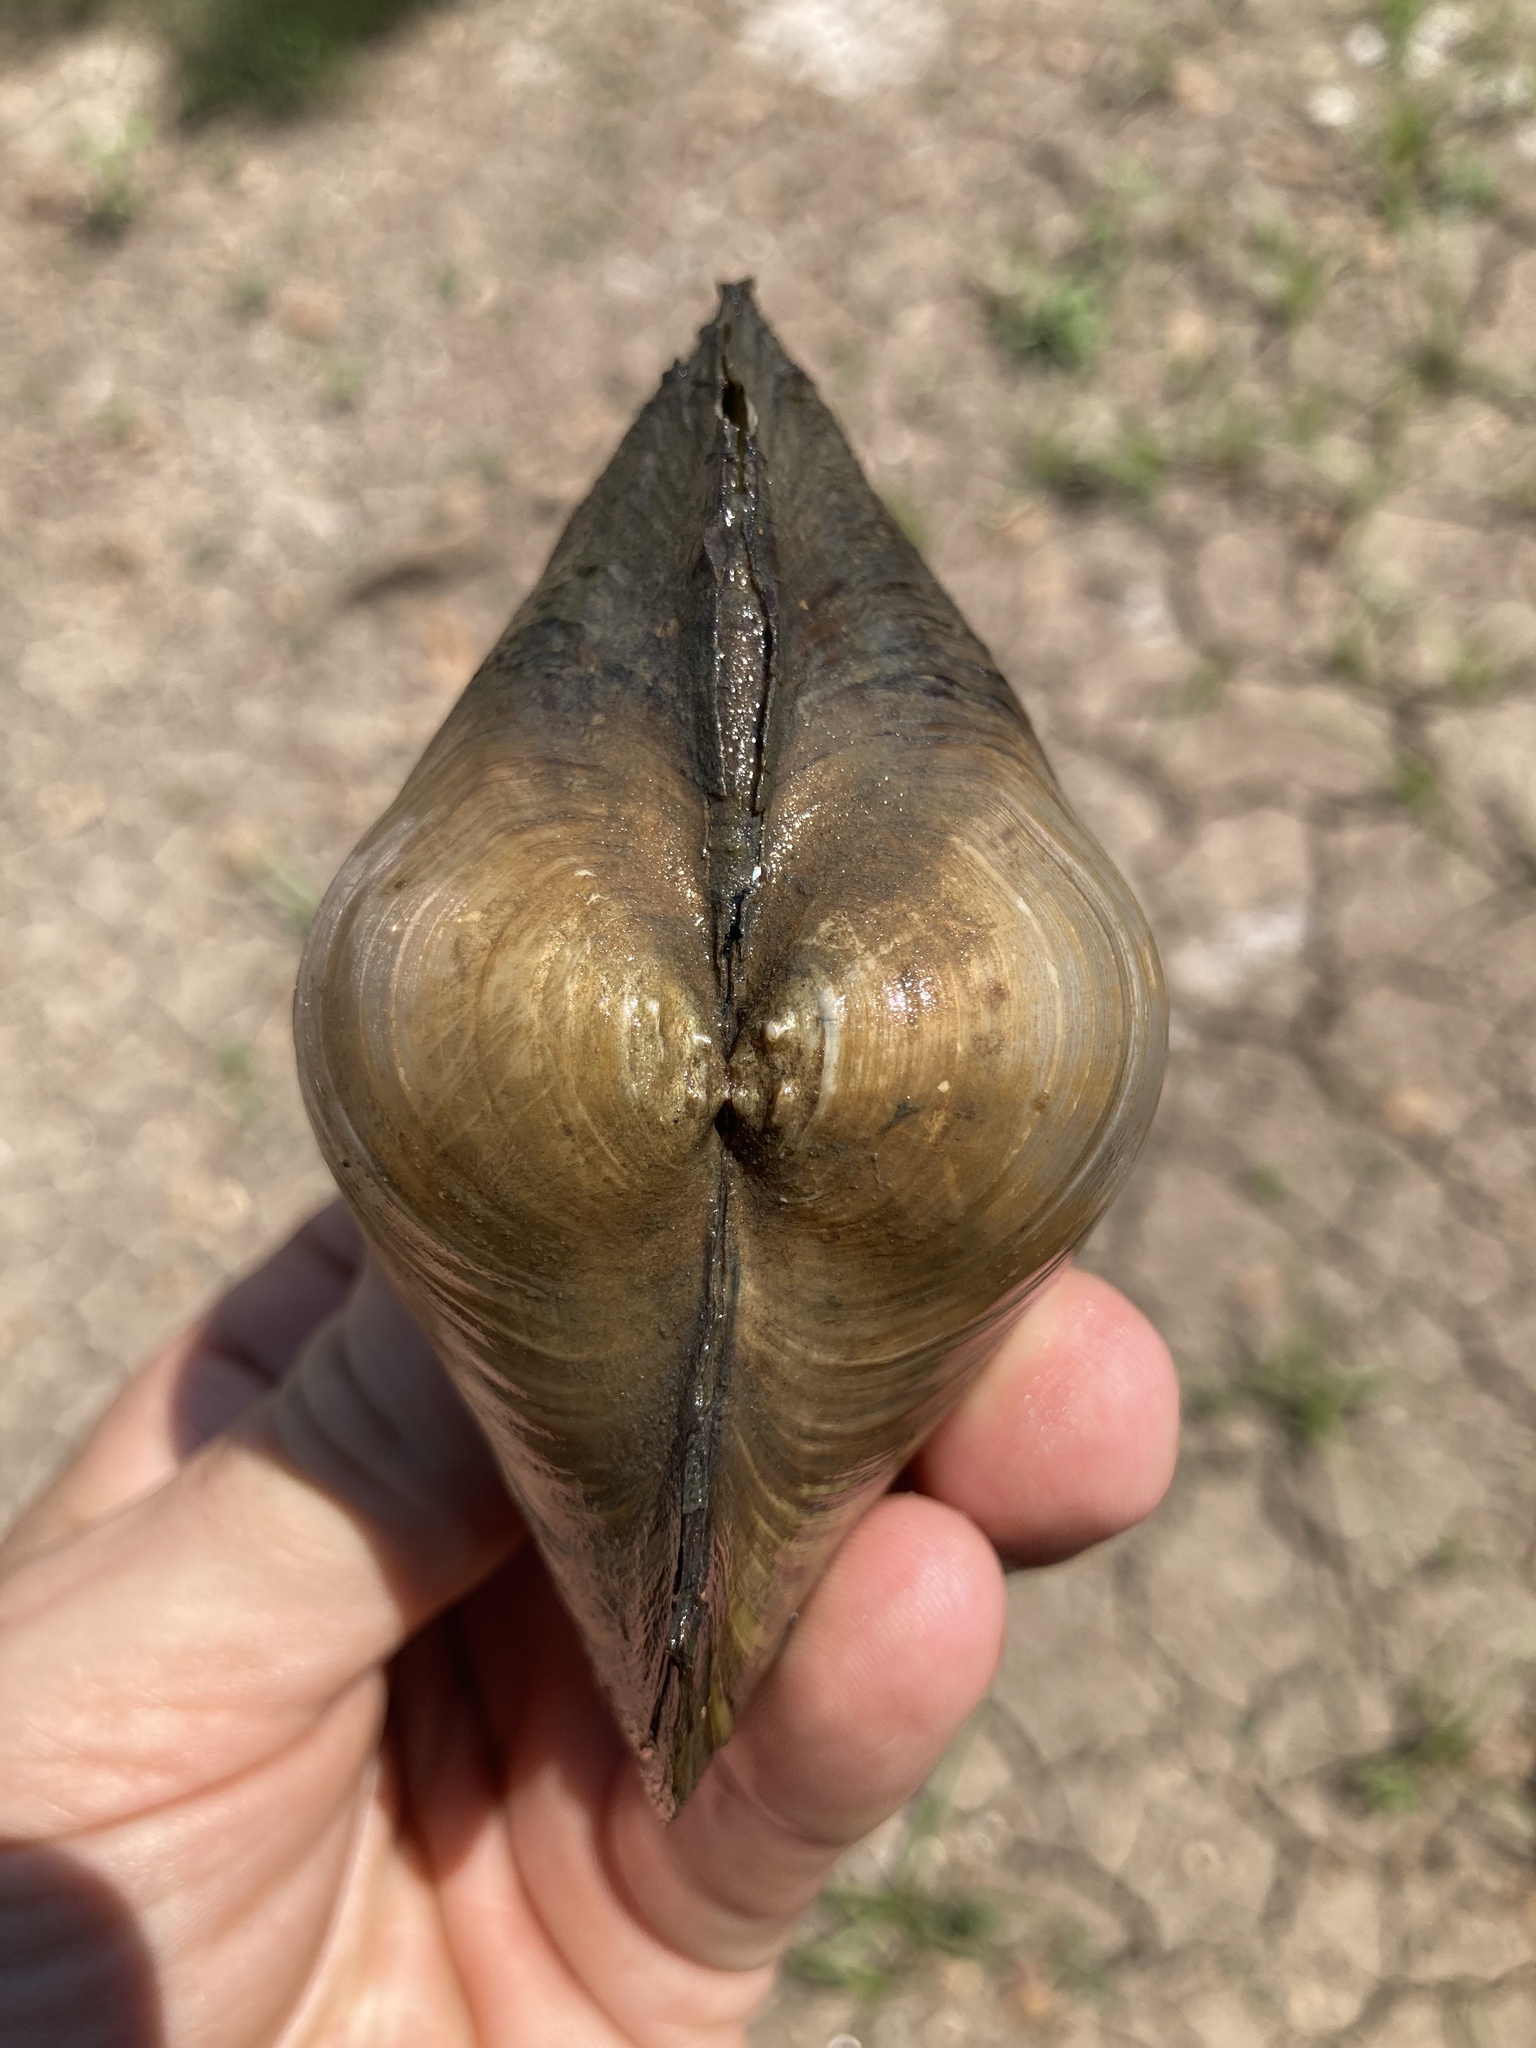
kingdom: Animalia
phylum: Mollusca
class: Bivalvia
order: Unionida
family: Unionidae
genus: Pyganodon
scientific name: Pyganodon grandis
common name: Giant floater
